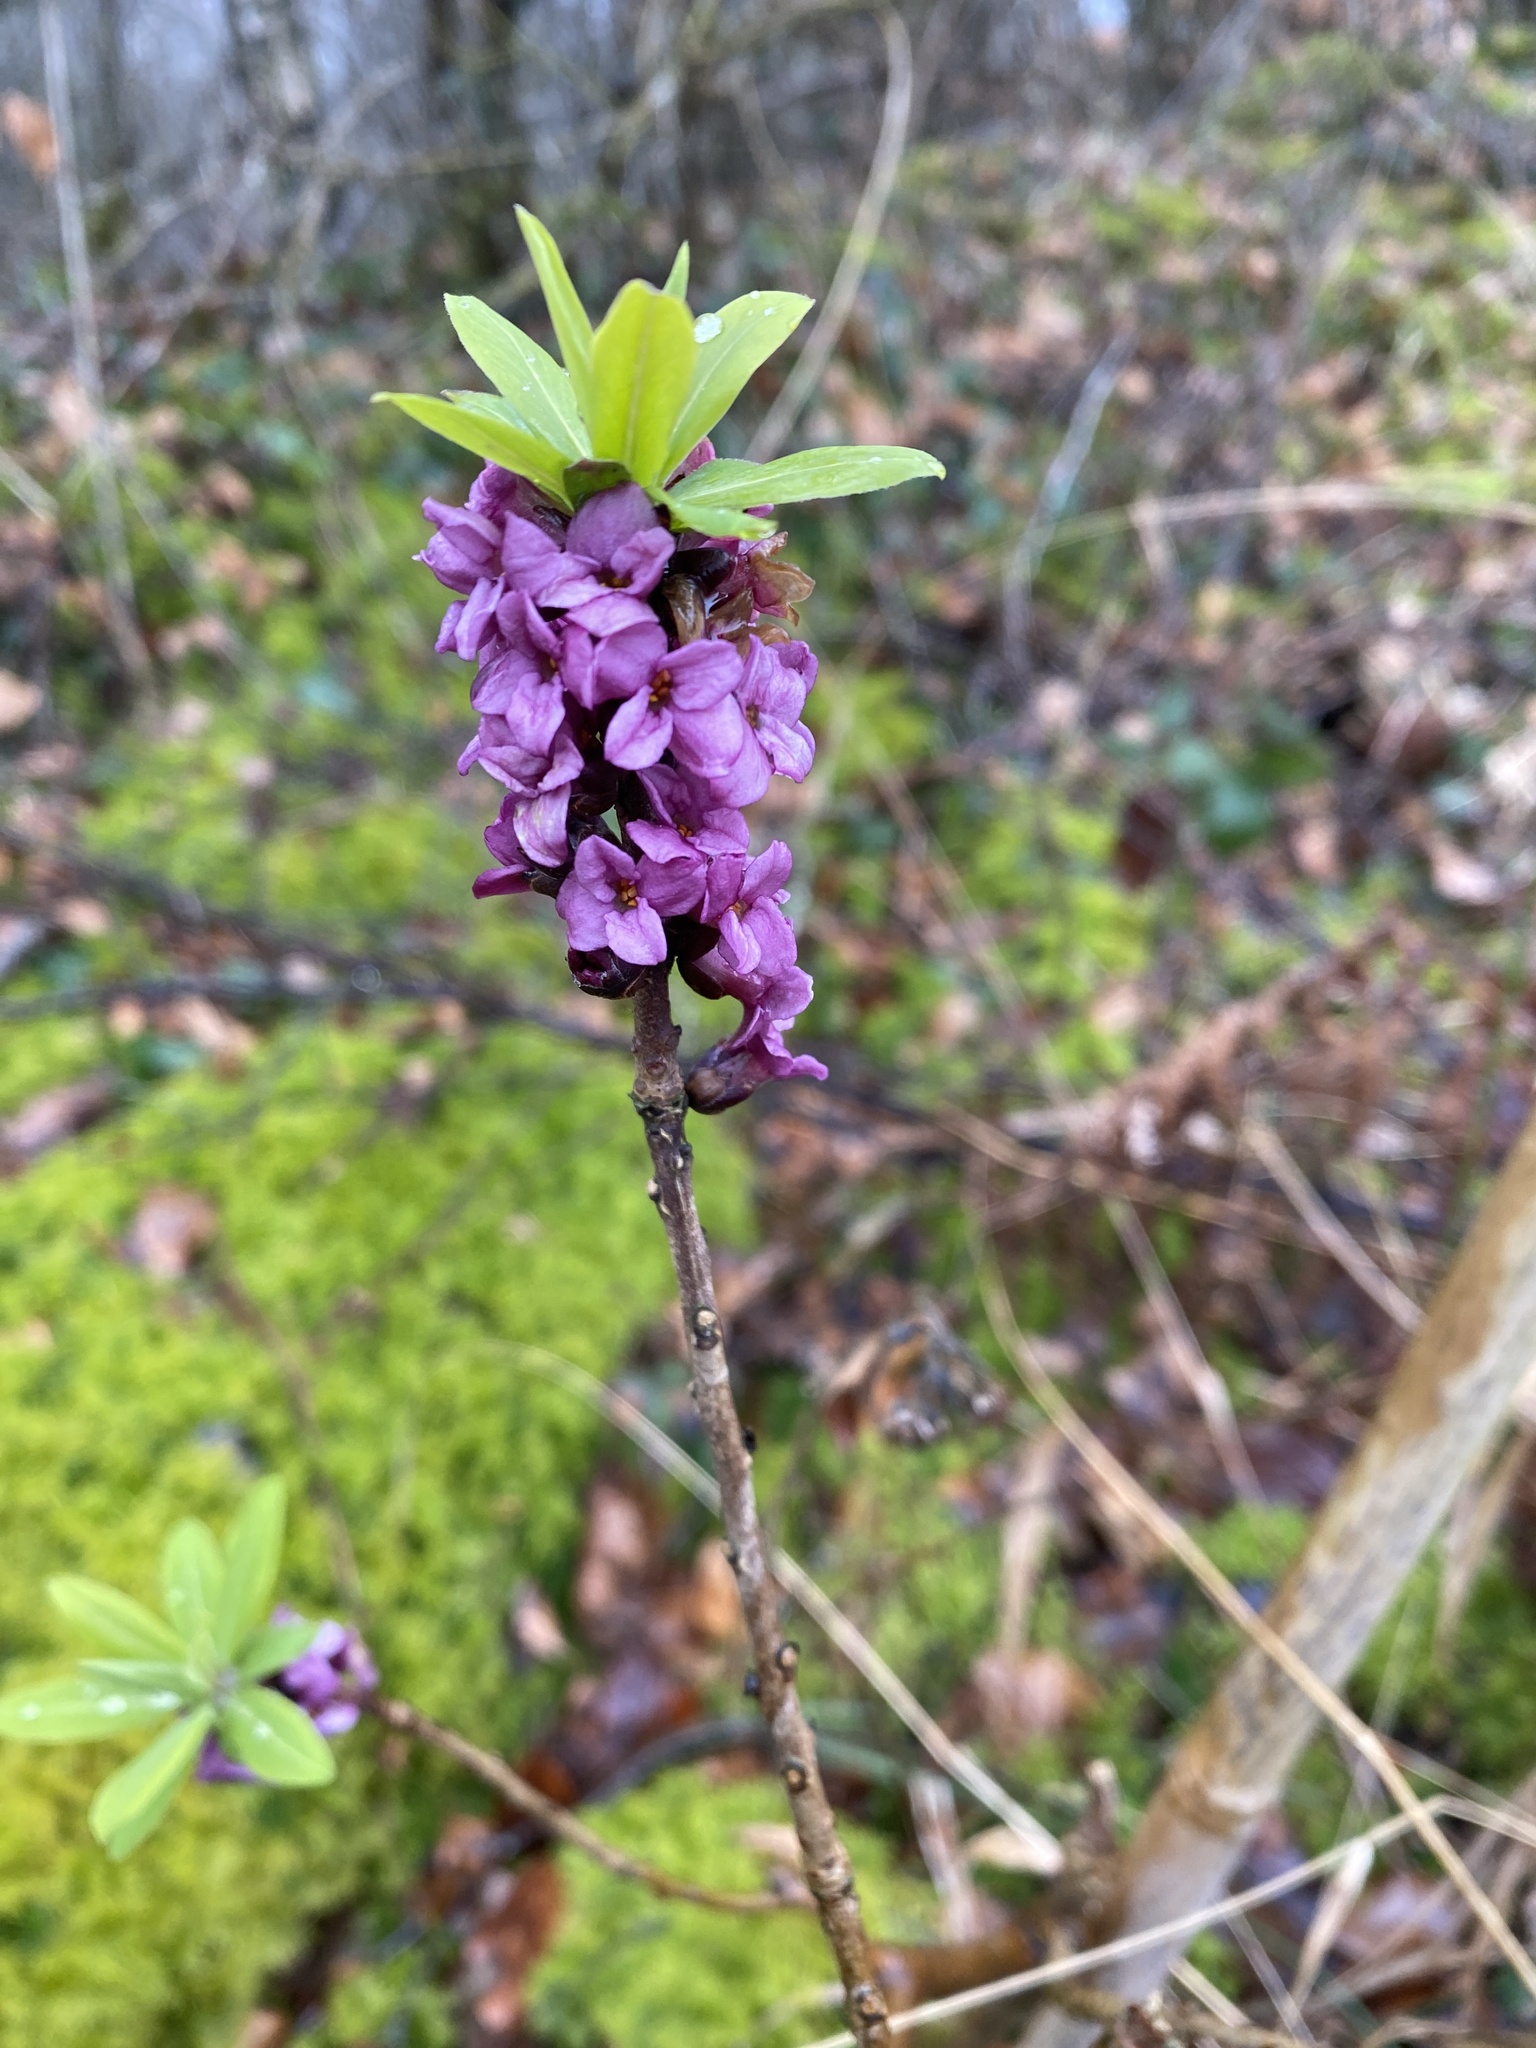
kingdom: Plantae
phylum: Tracheophyta
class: Magnoliopsida
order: Malvales
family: Thymelaeaceae
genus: Daphne
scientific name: Daphne mezereum
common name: Mezereon
